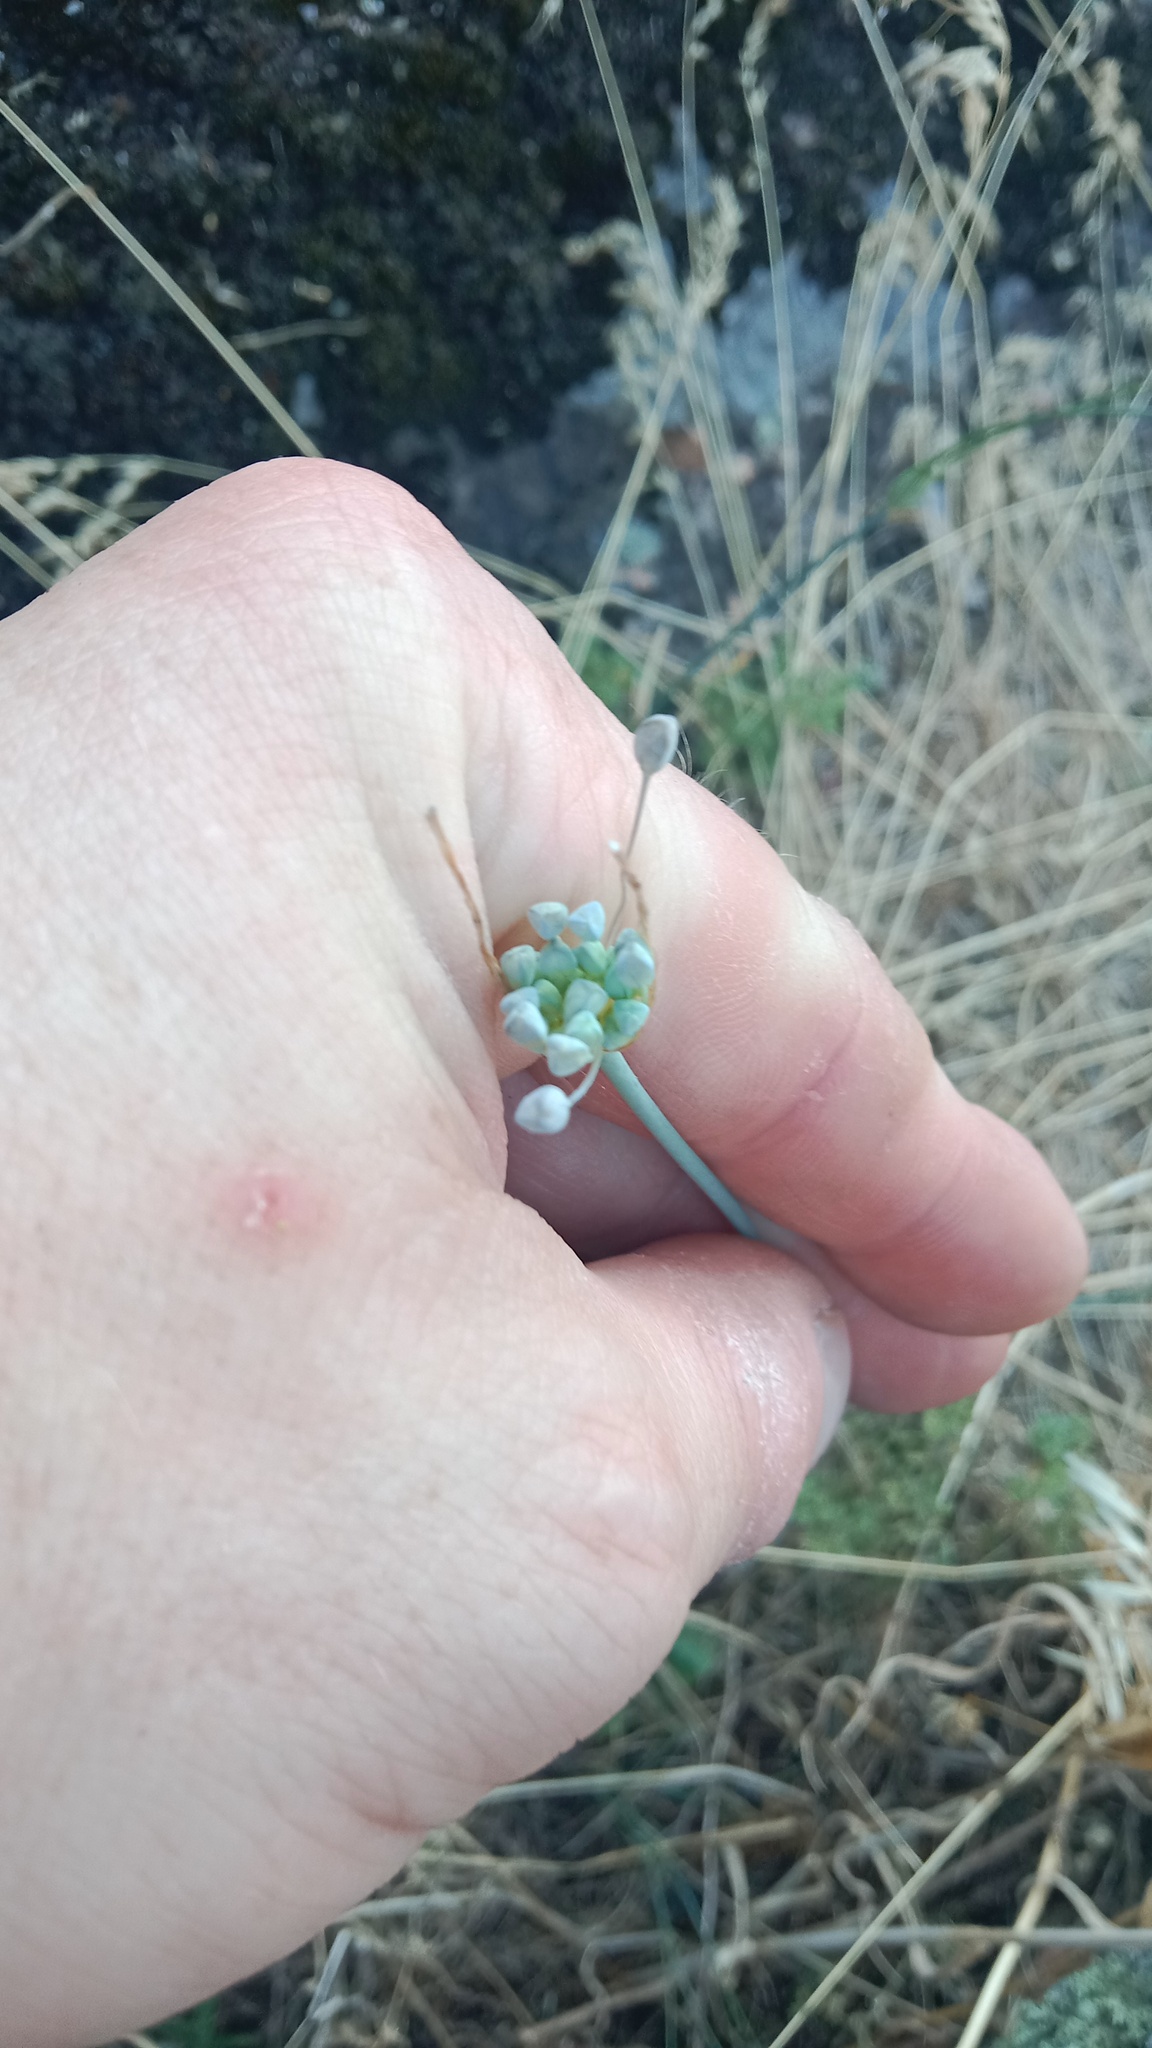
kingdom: Plantae
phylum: Tracheophyta
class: Liliopsida
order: Asparagales
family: Amaryllidaceae
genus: Allium
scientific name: Allium flavum
